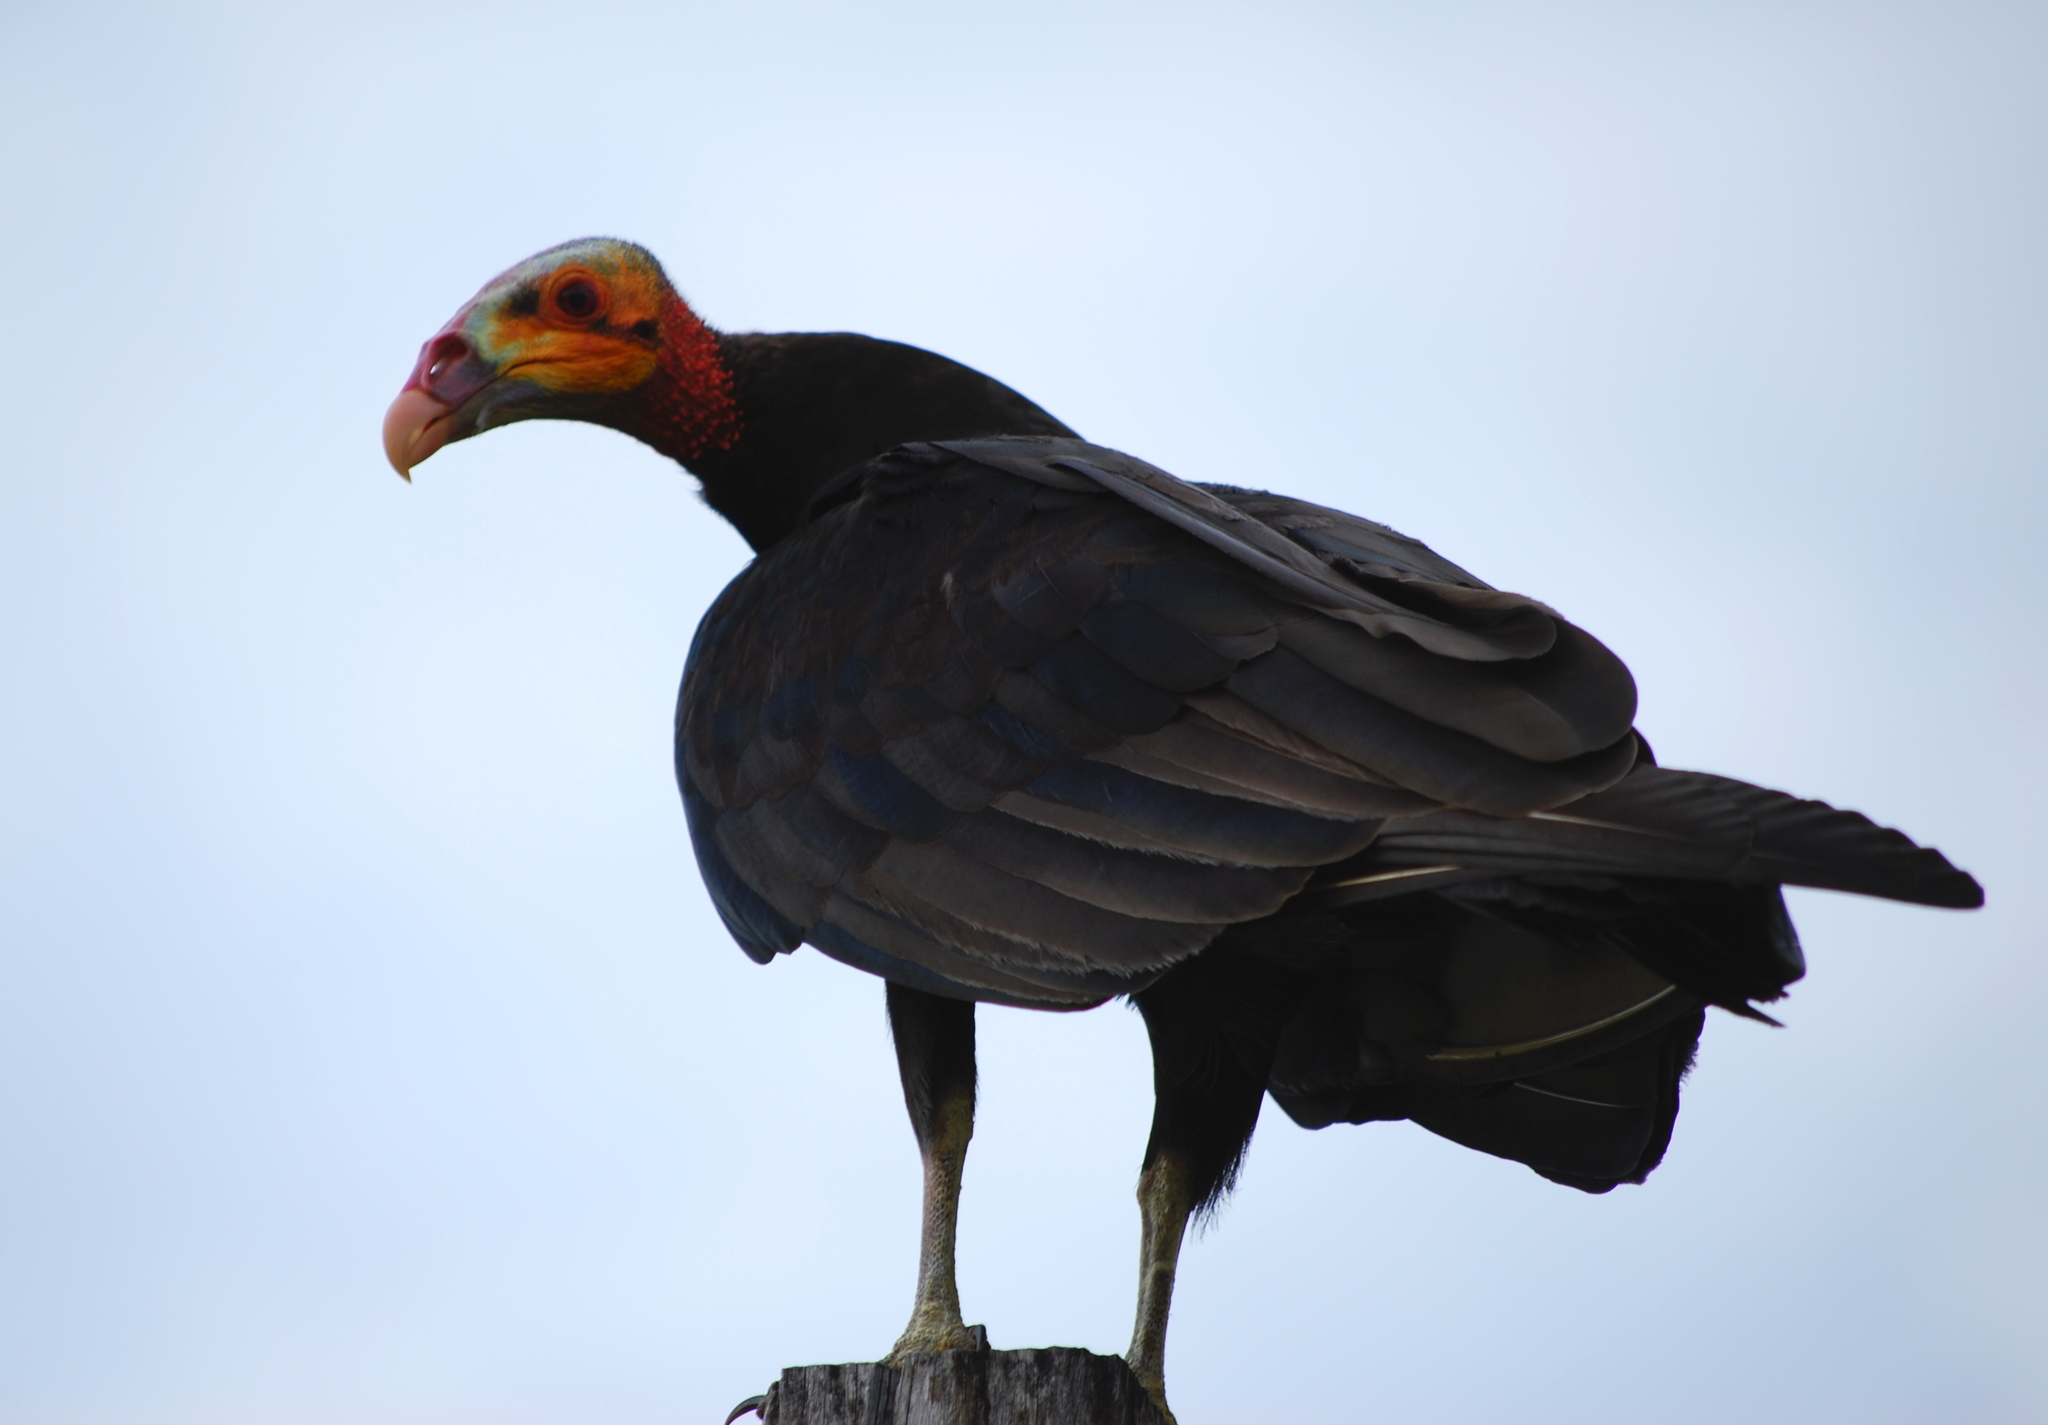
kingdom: Animalia
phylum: Chordata
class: Aves
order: Accipitriformes
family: Cathartidae
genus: Cathartes
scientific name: Cathartes burrovianus
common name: Lesser yellow-headed vulture
